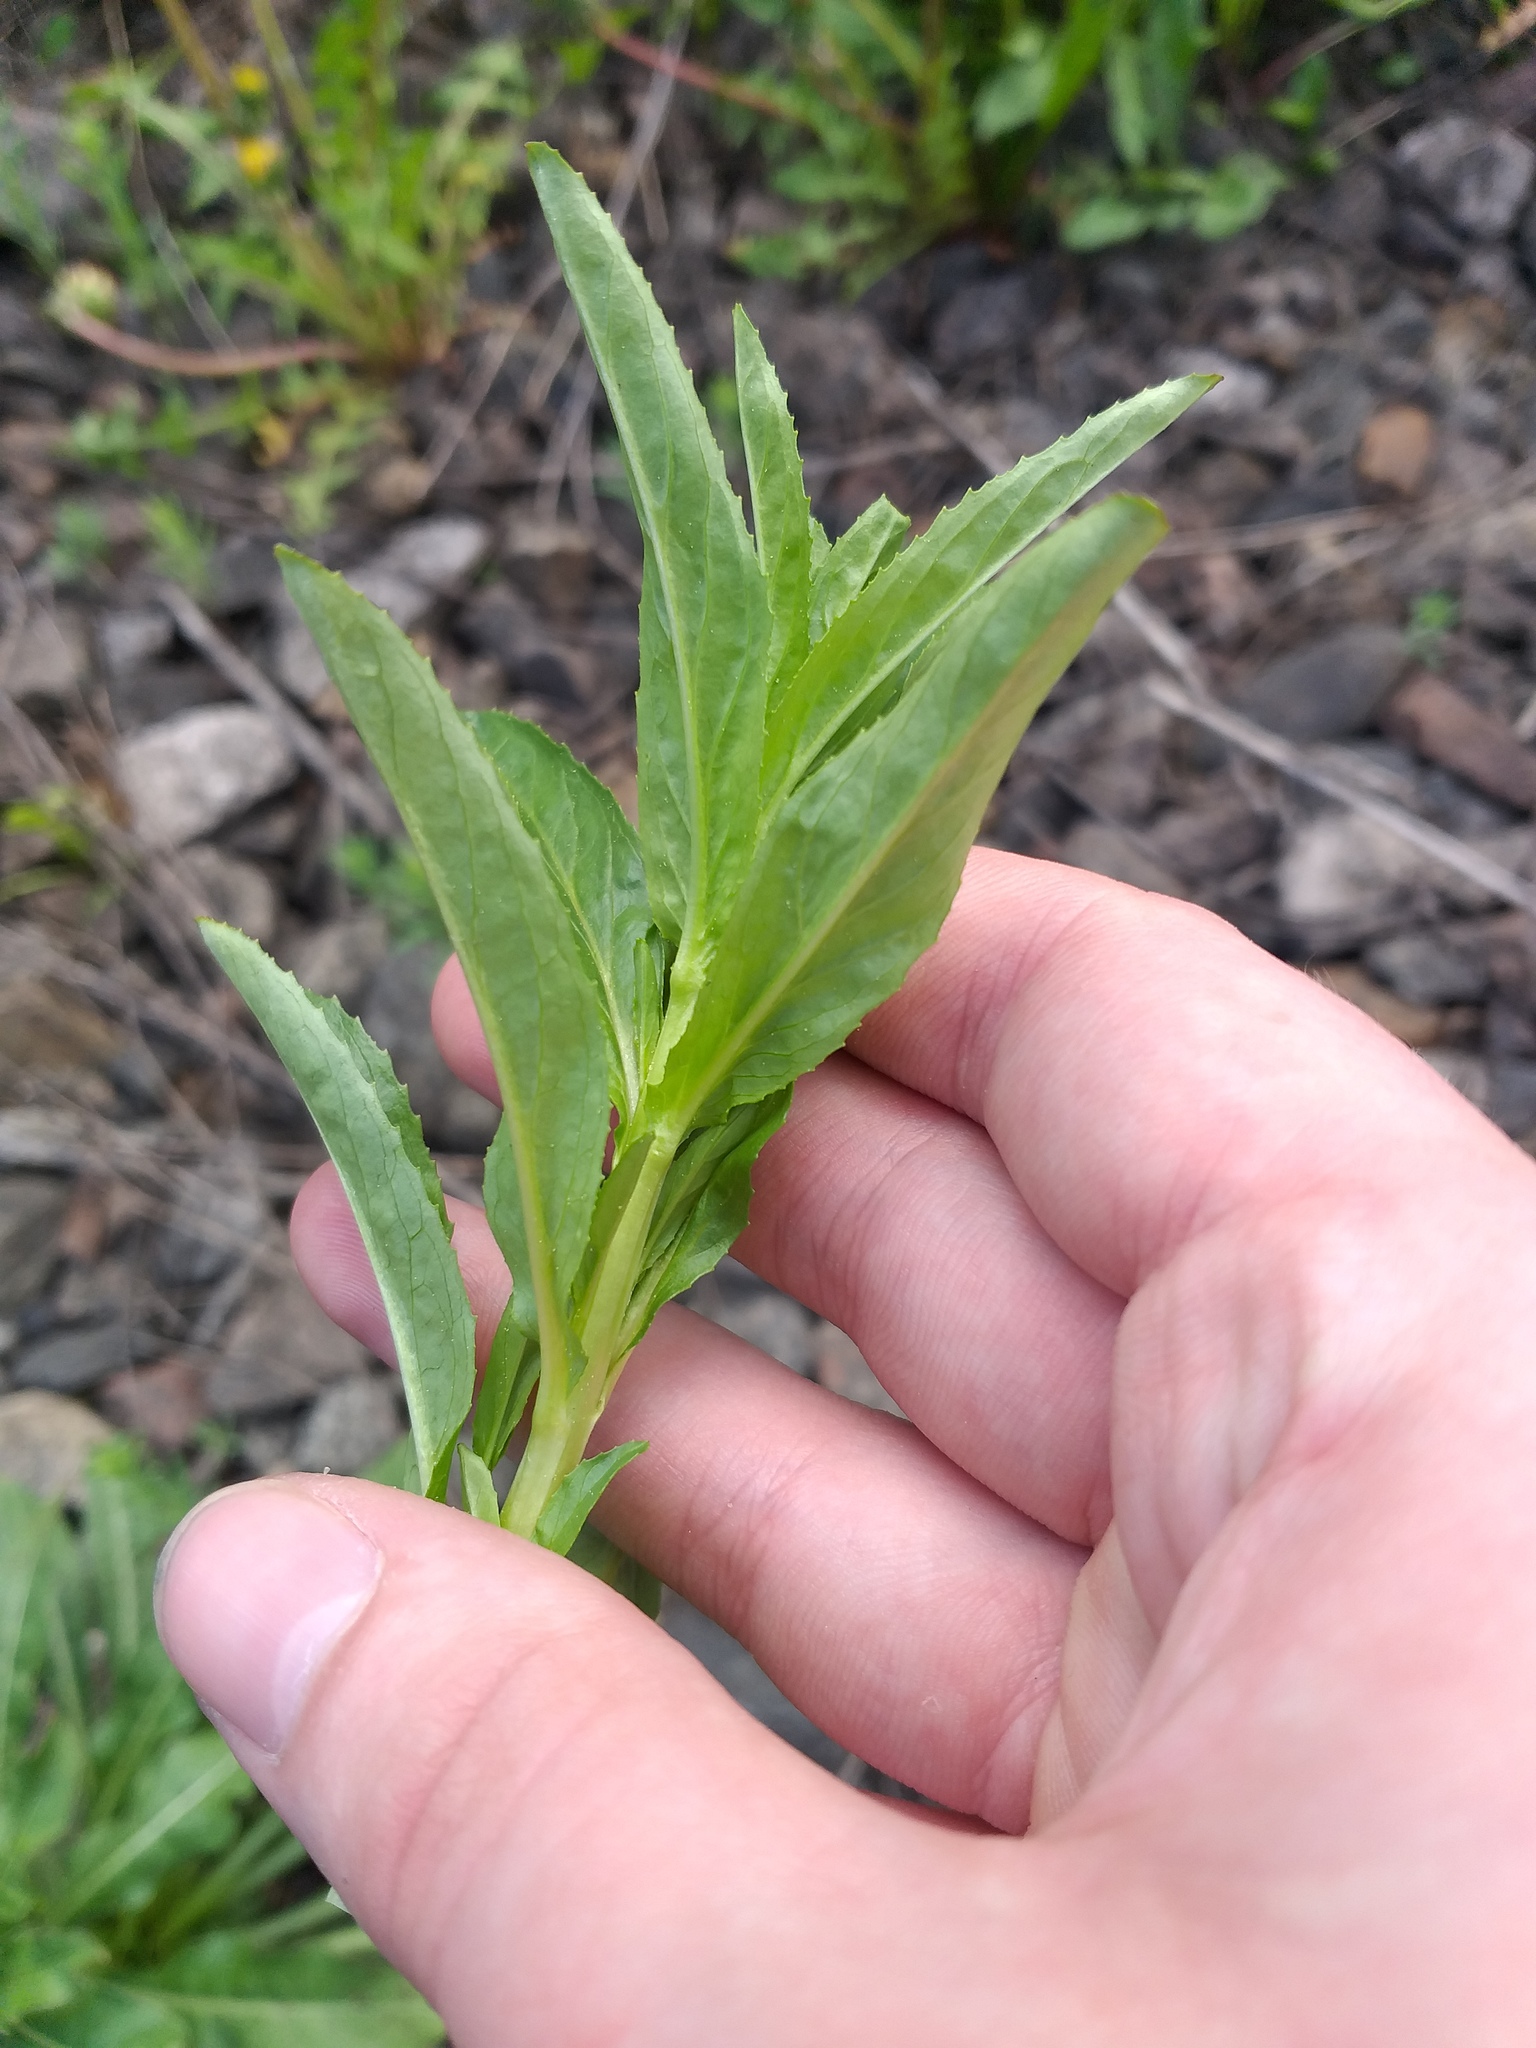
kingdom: Plantae
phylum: Tracheophyta
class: Magnoliopsida
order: Myrtales
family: Onagraceae
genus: Epilobium
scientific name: Epilobium tetragonum
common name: Square-stemmed willowherb
